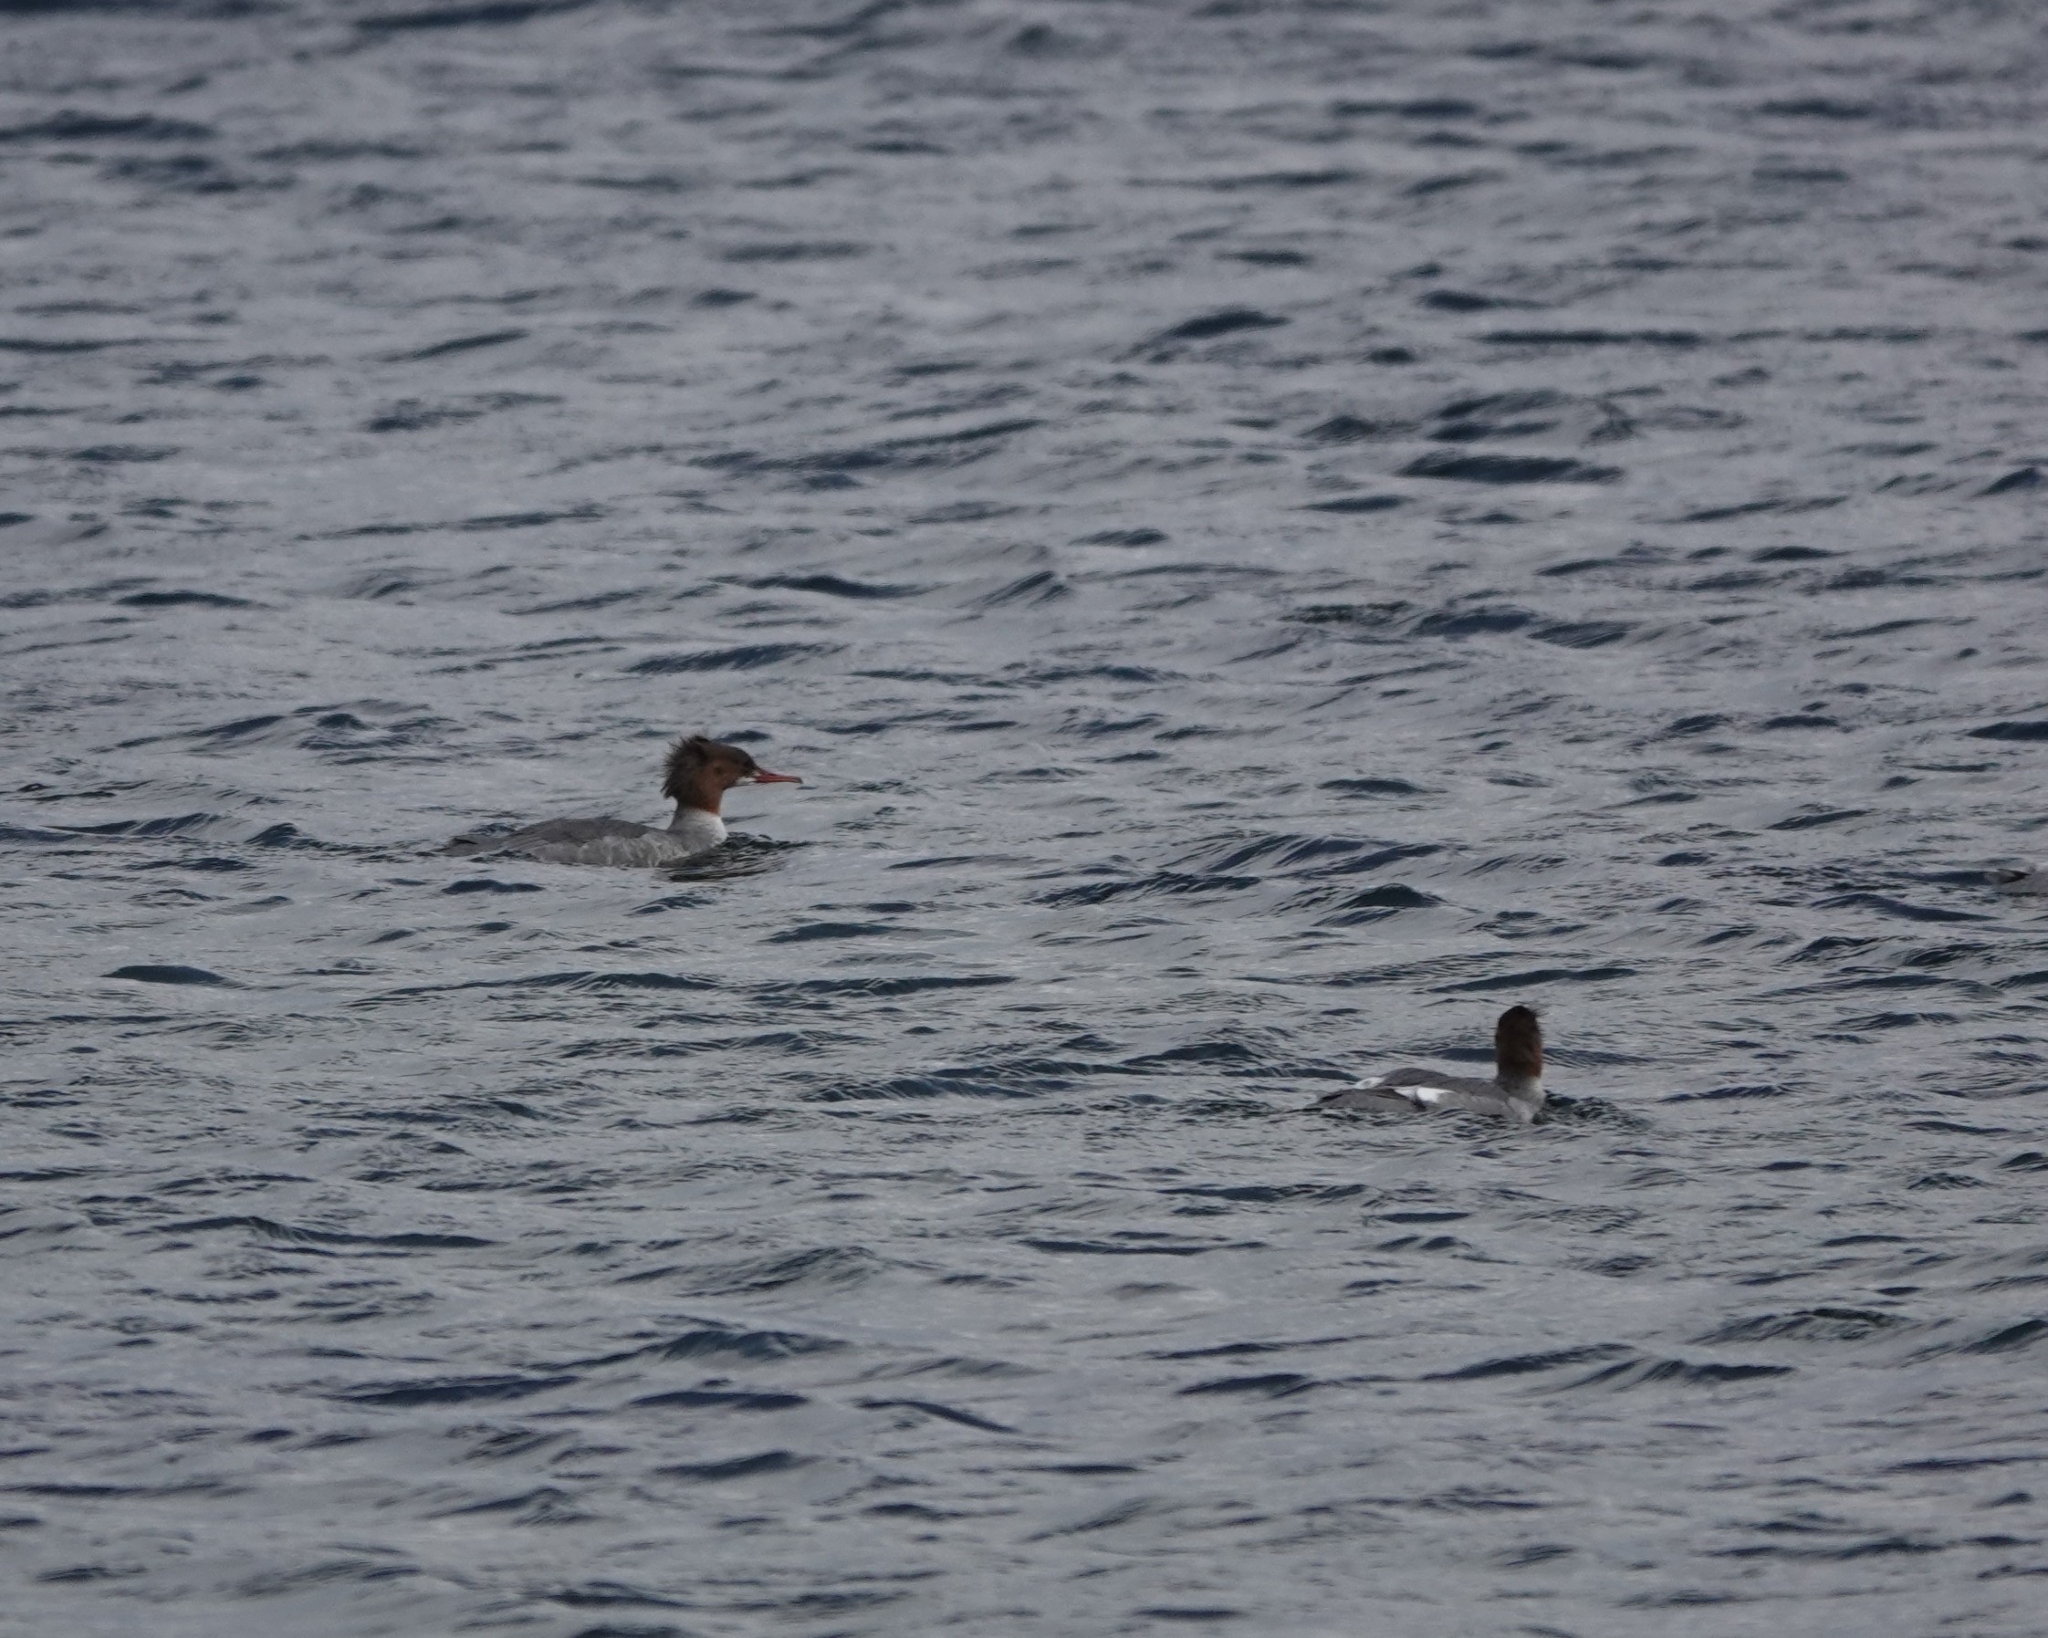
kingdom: Animalia
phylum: Chordata
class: Aves
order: Anseriformes
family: Anatidae
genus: Mergus
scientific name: Mergus merganser
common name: Common merganser
